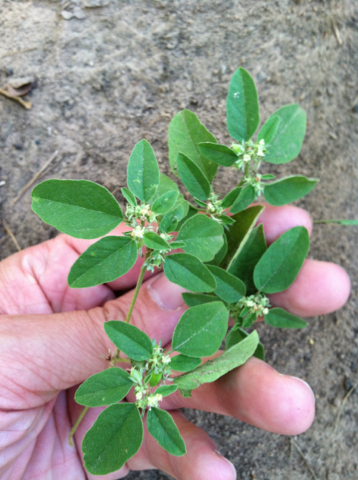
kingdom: Plantae
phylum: Tracheophyta
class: Magnoliopsida
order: Malpighiales
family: Euphorbiaceae
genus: Croton
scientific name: Croton monanthogynus
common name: One-seed croton
